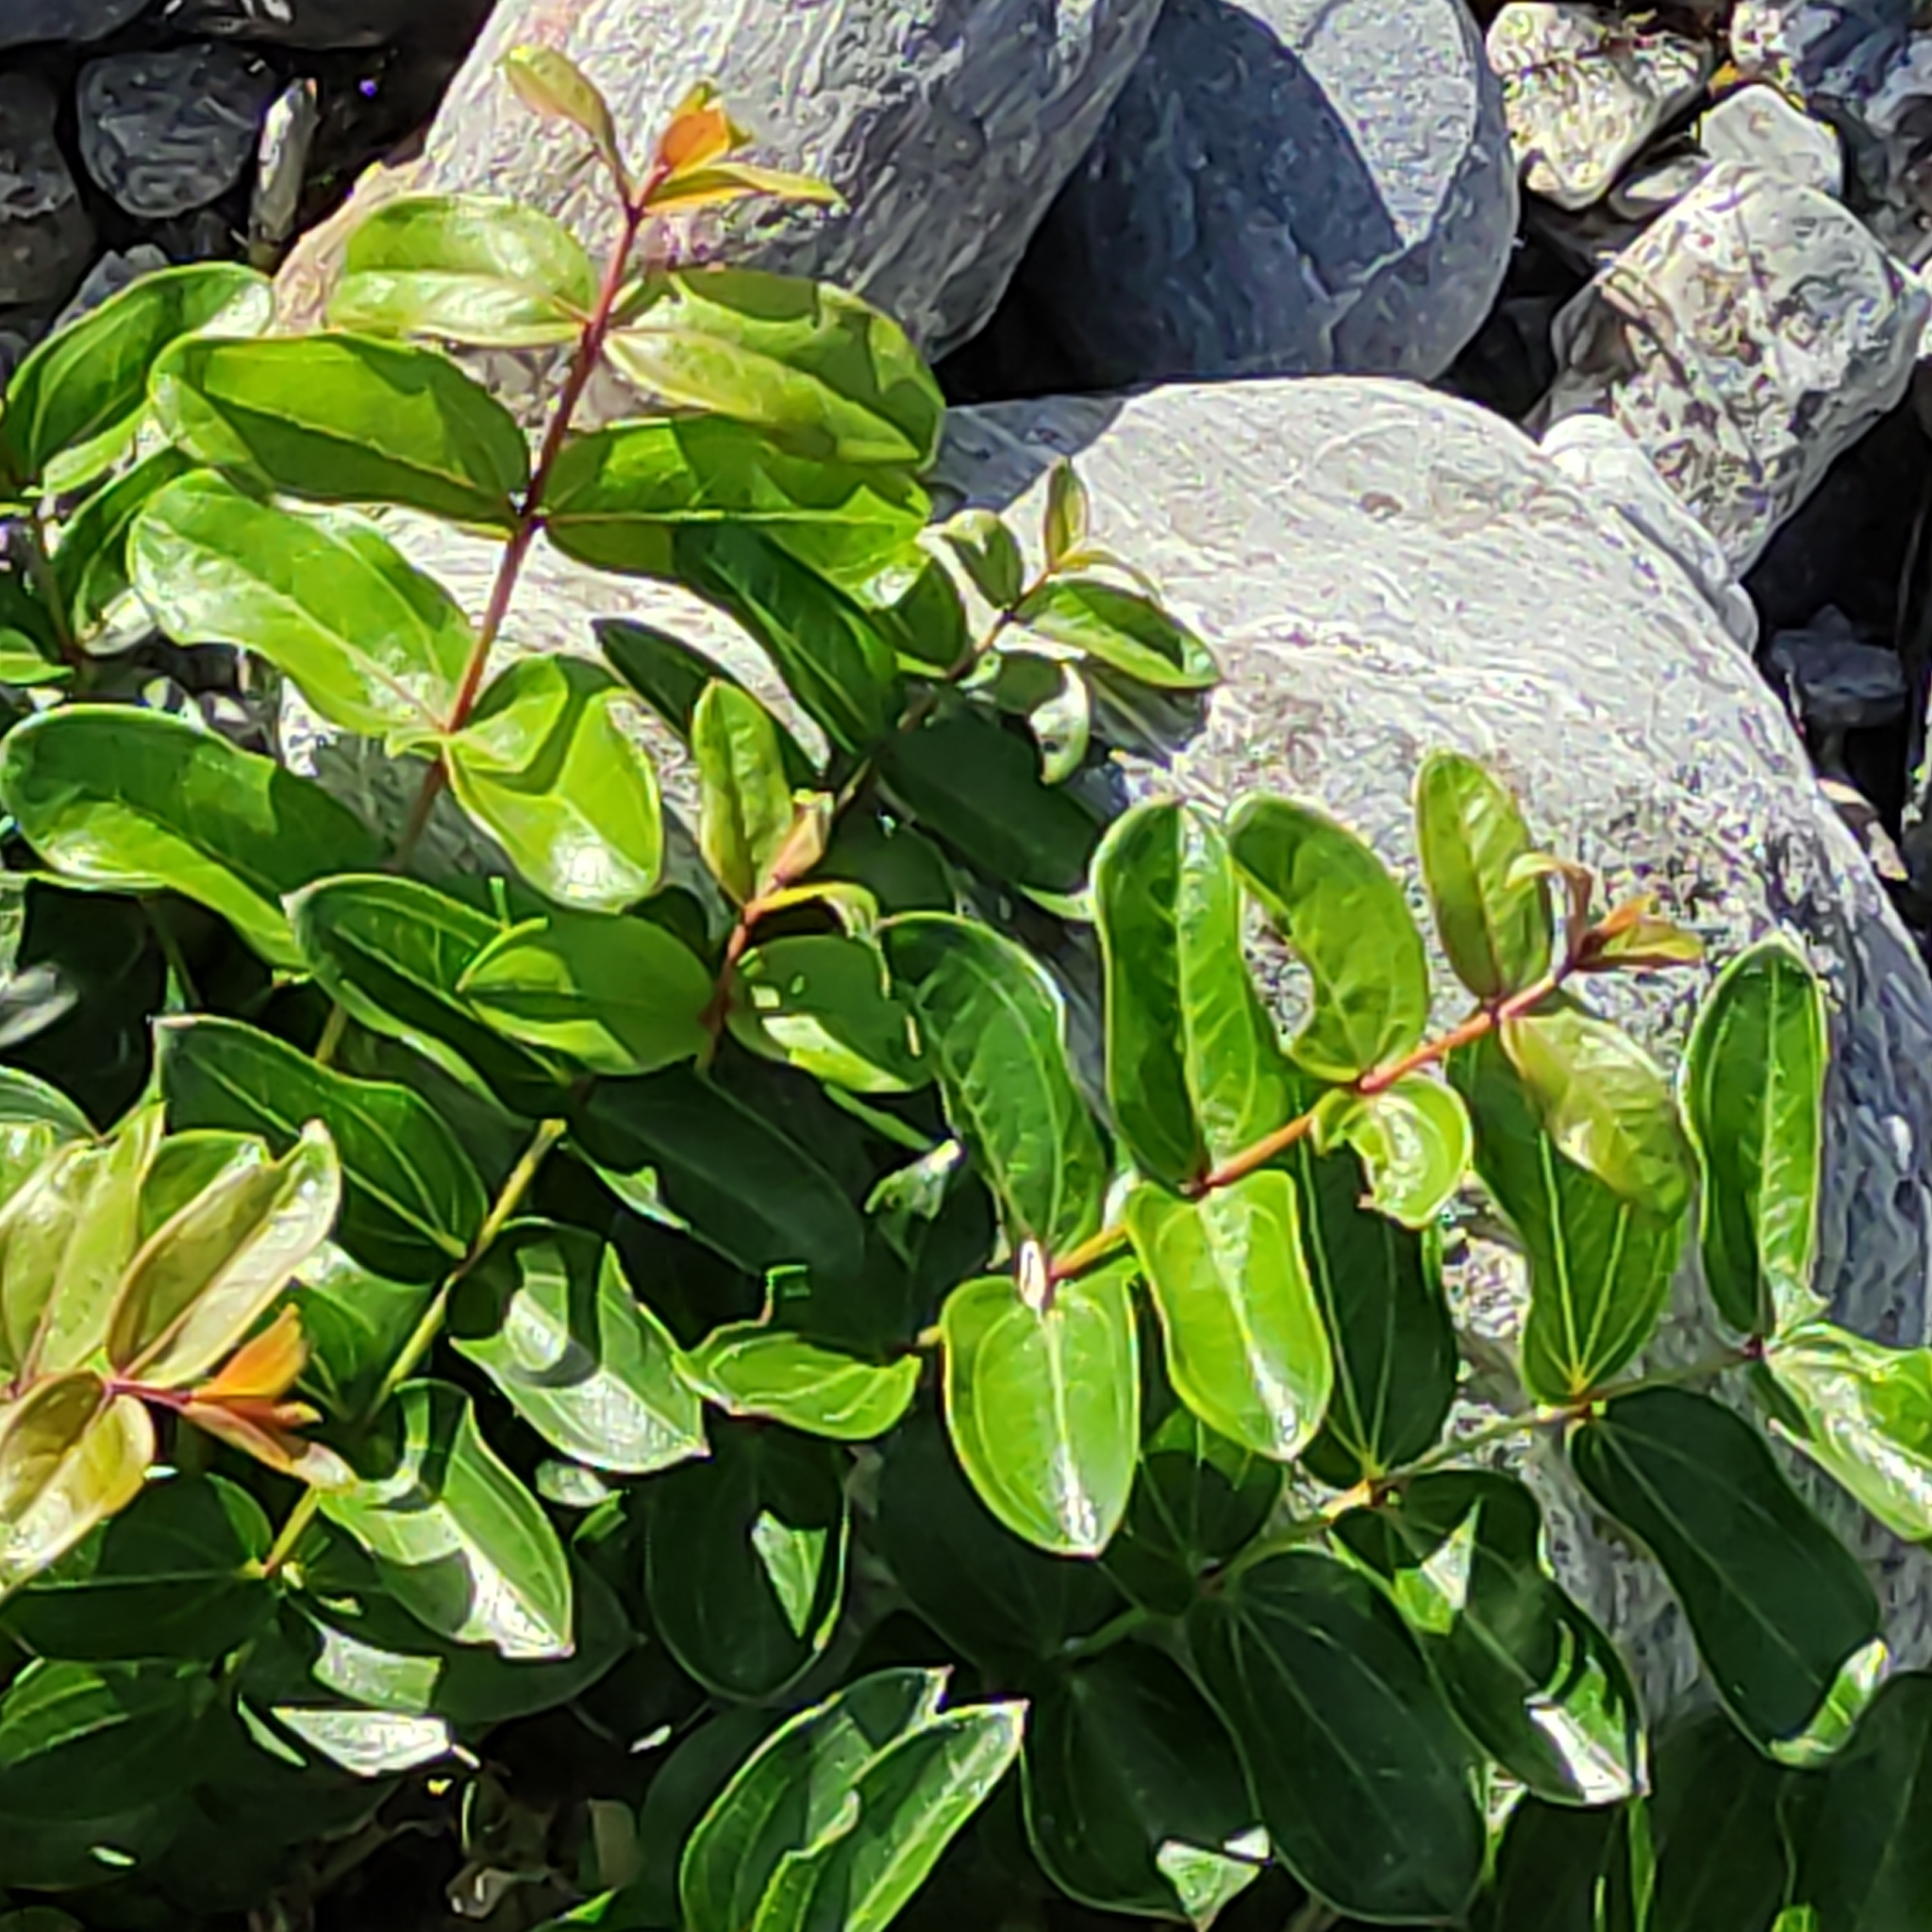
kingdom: Plantae
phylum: Tracheophyta
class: Magnoliopsida
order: Cucurbitales
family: Coriariaceae
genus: Coriaria
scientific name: Coriaria sarmentosa
